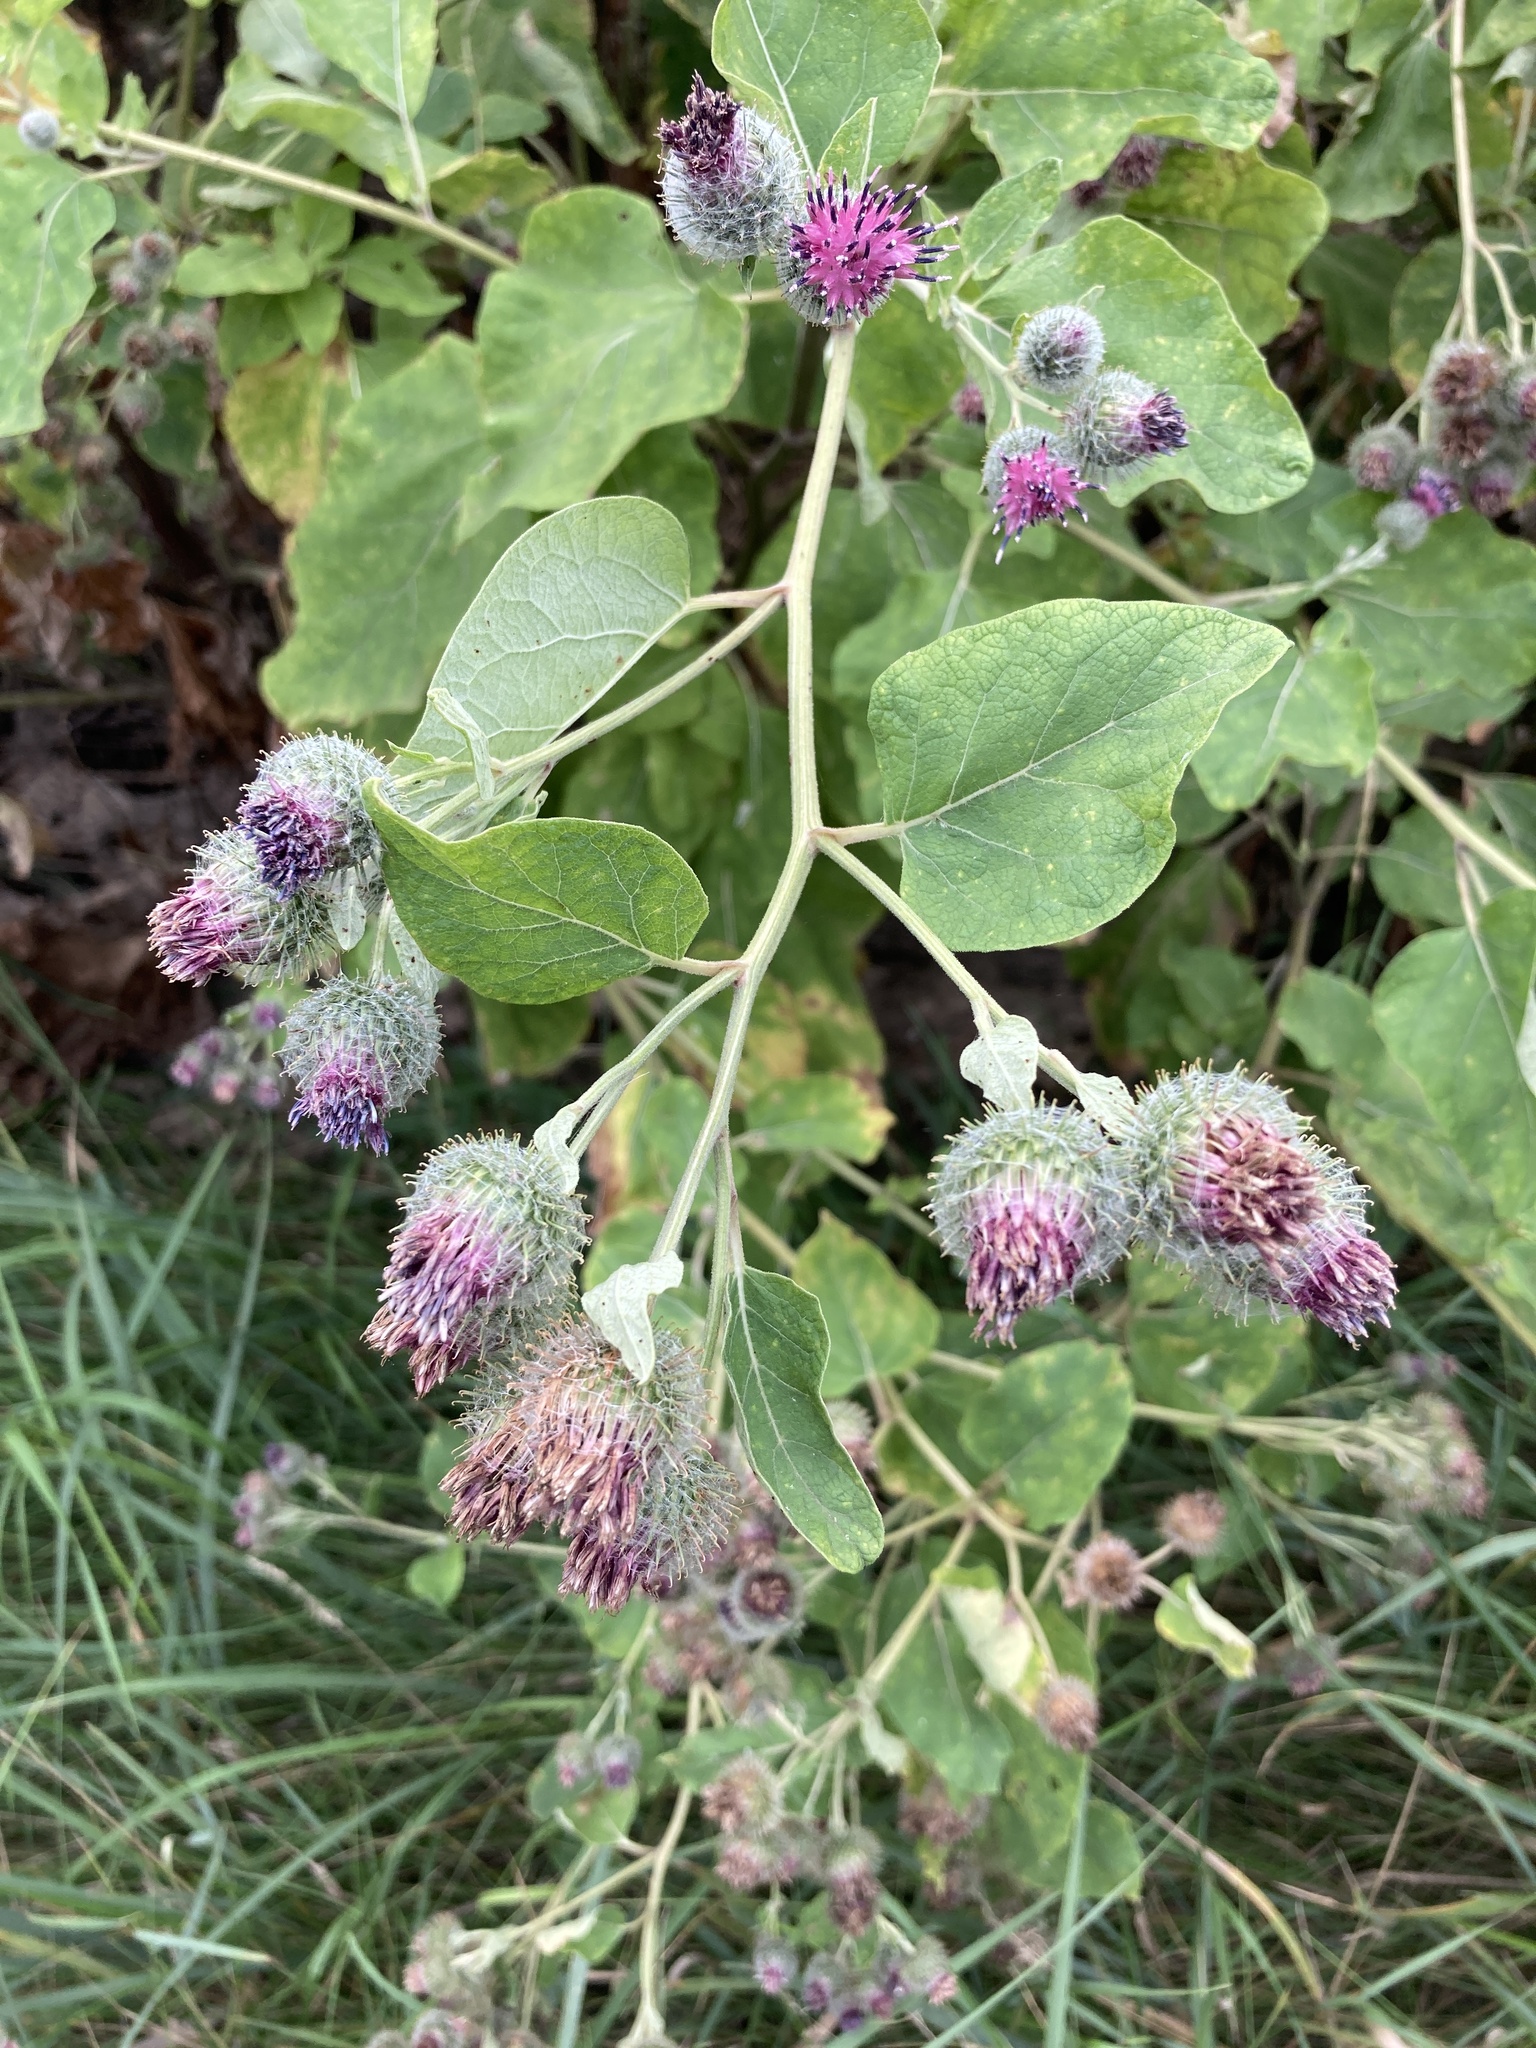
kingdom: Plantae
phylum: Tracheophyta
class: Magnoliopsida
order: Asterales
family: Asteraceae
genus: Arctium
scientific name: Arctium tomentosum
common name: Woolly burdock
